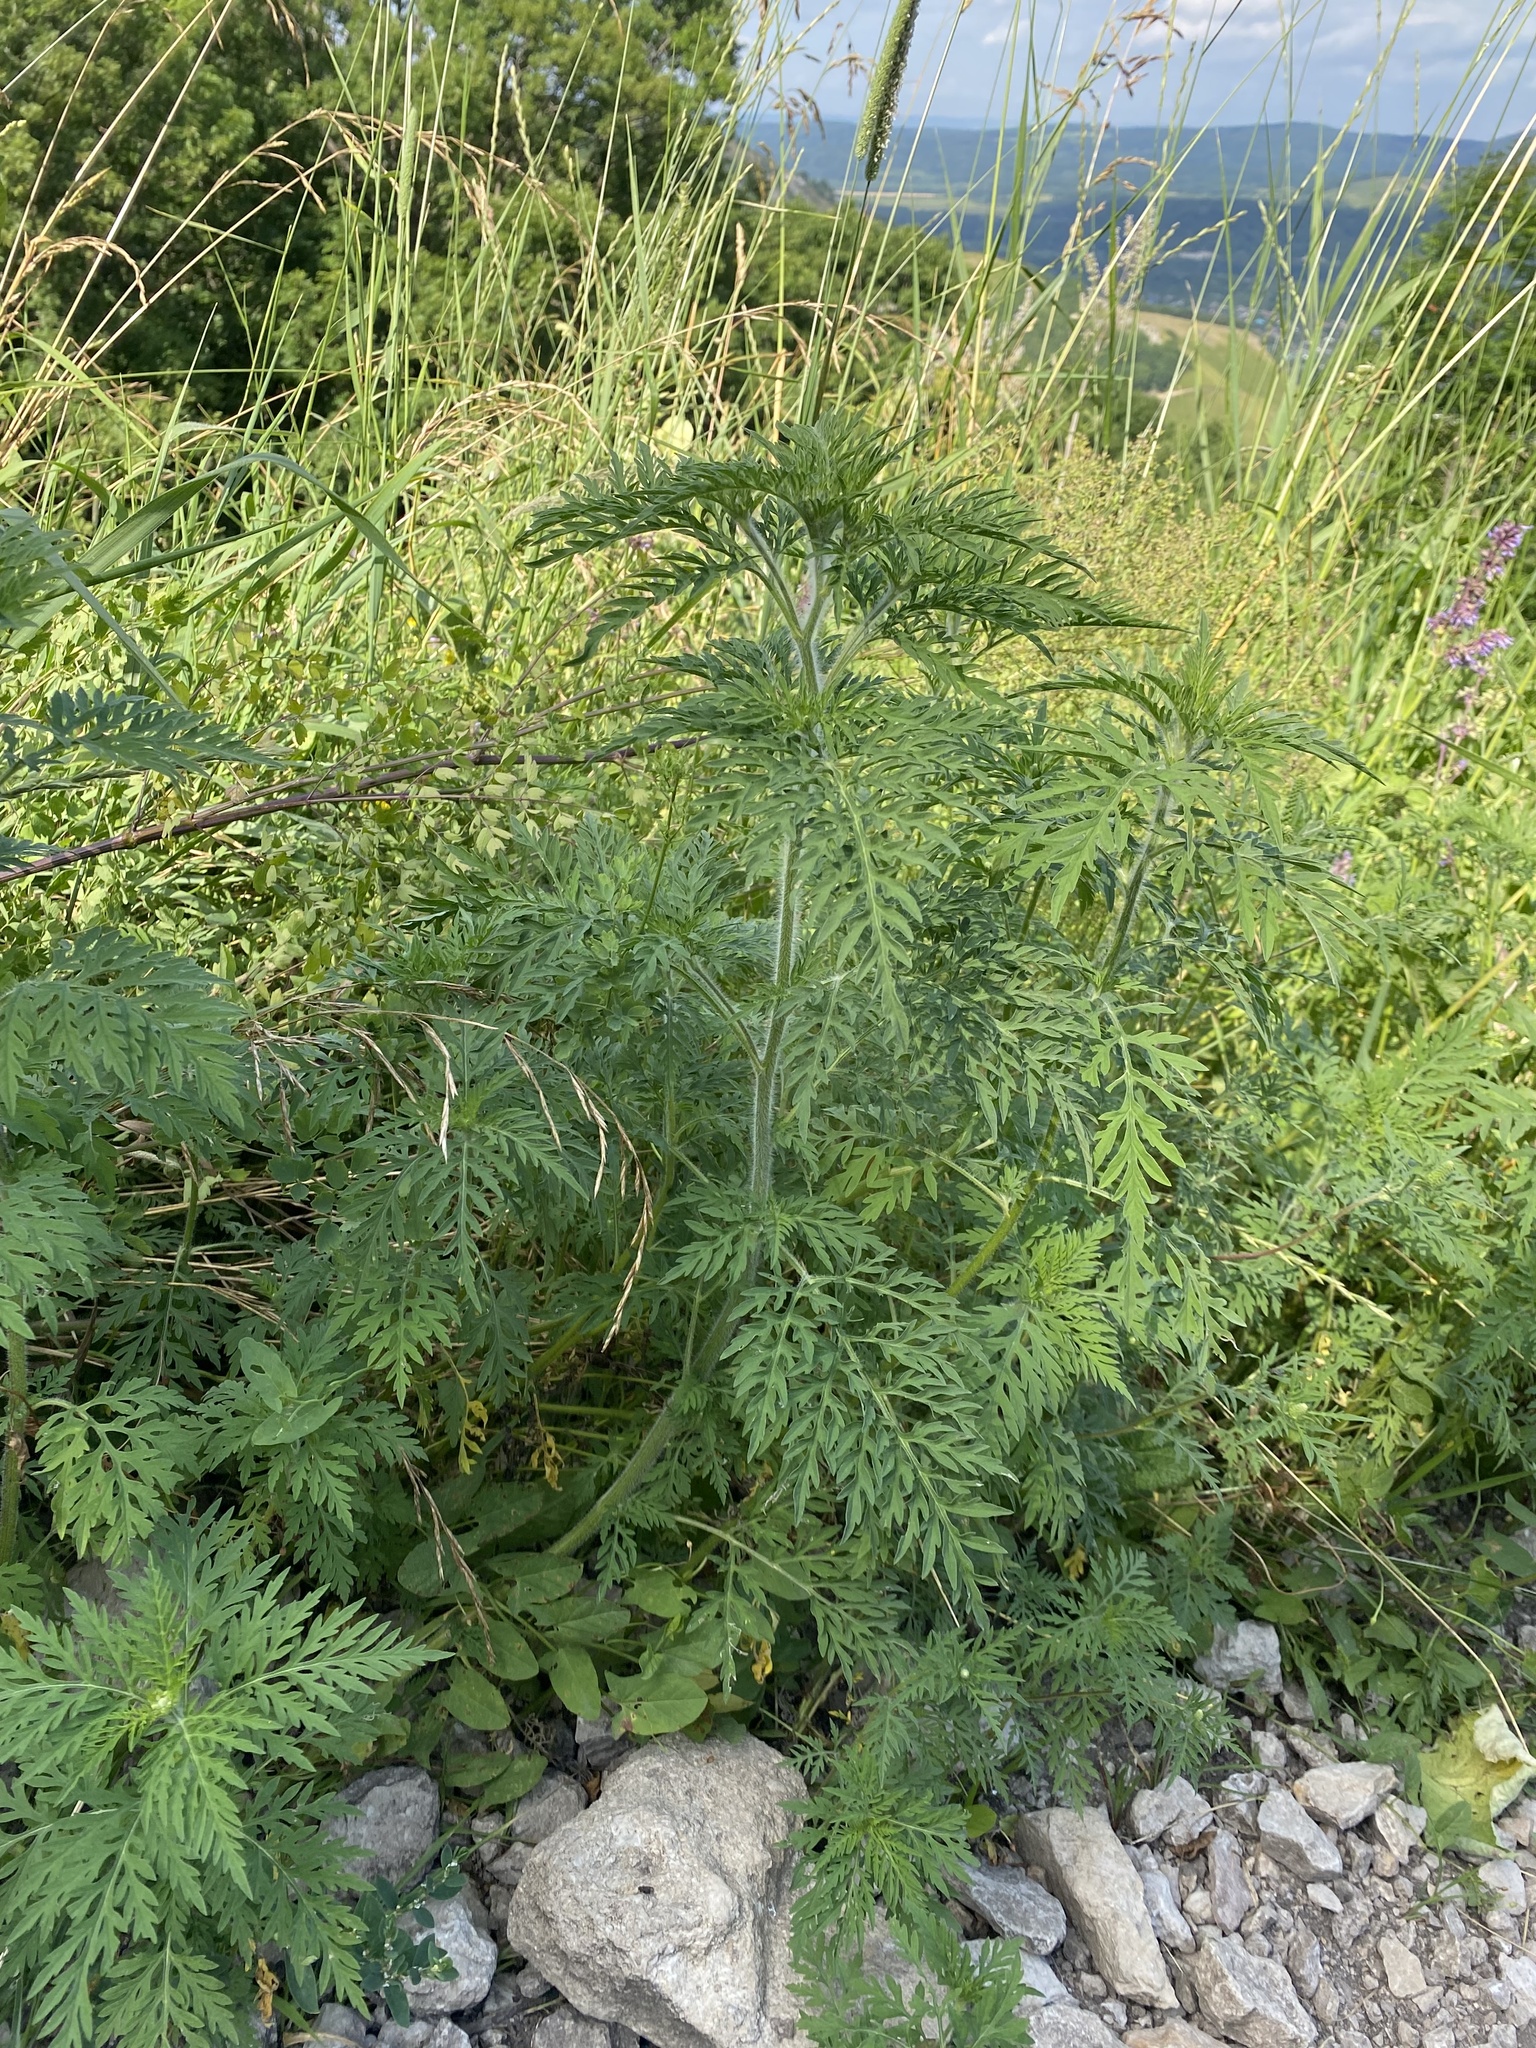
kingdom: Plantae
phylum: Tracheophyta
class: Magnoliopsida
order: Asterales
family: Asteraceae
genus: Ambrosia
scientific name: Ambrosia artemisiifolia
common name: Annual ragweed
